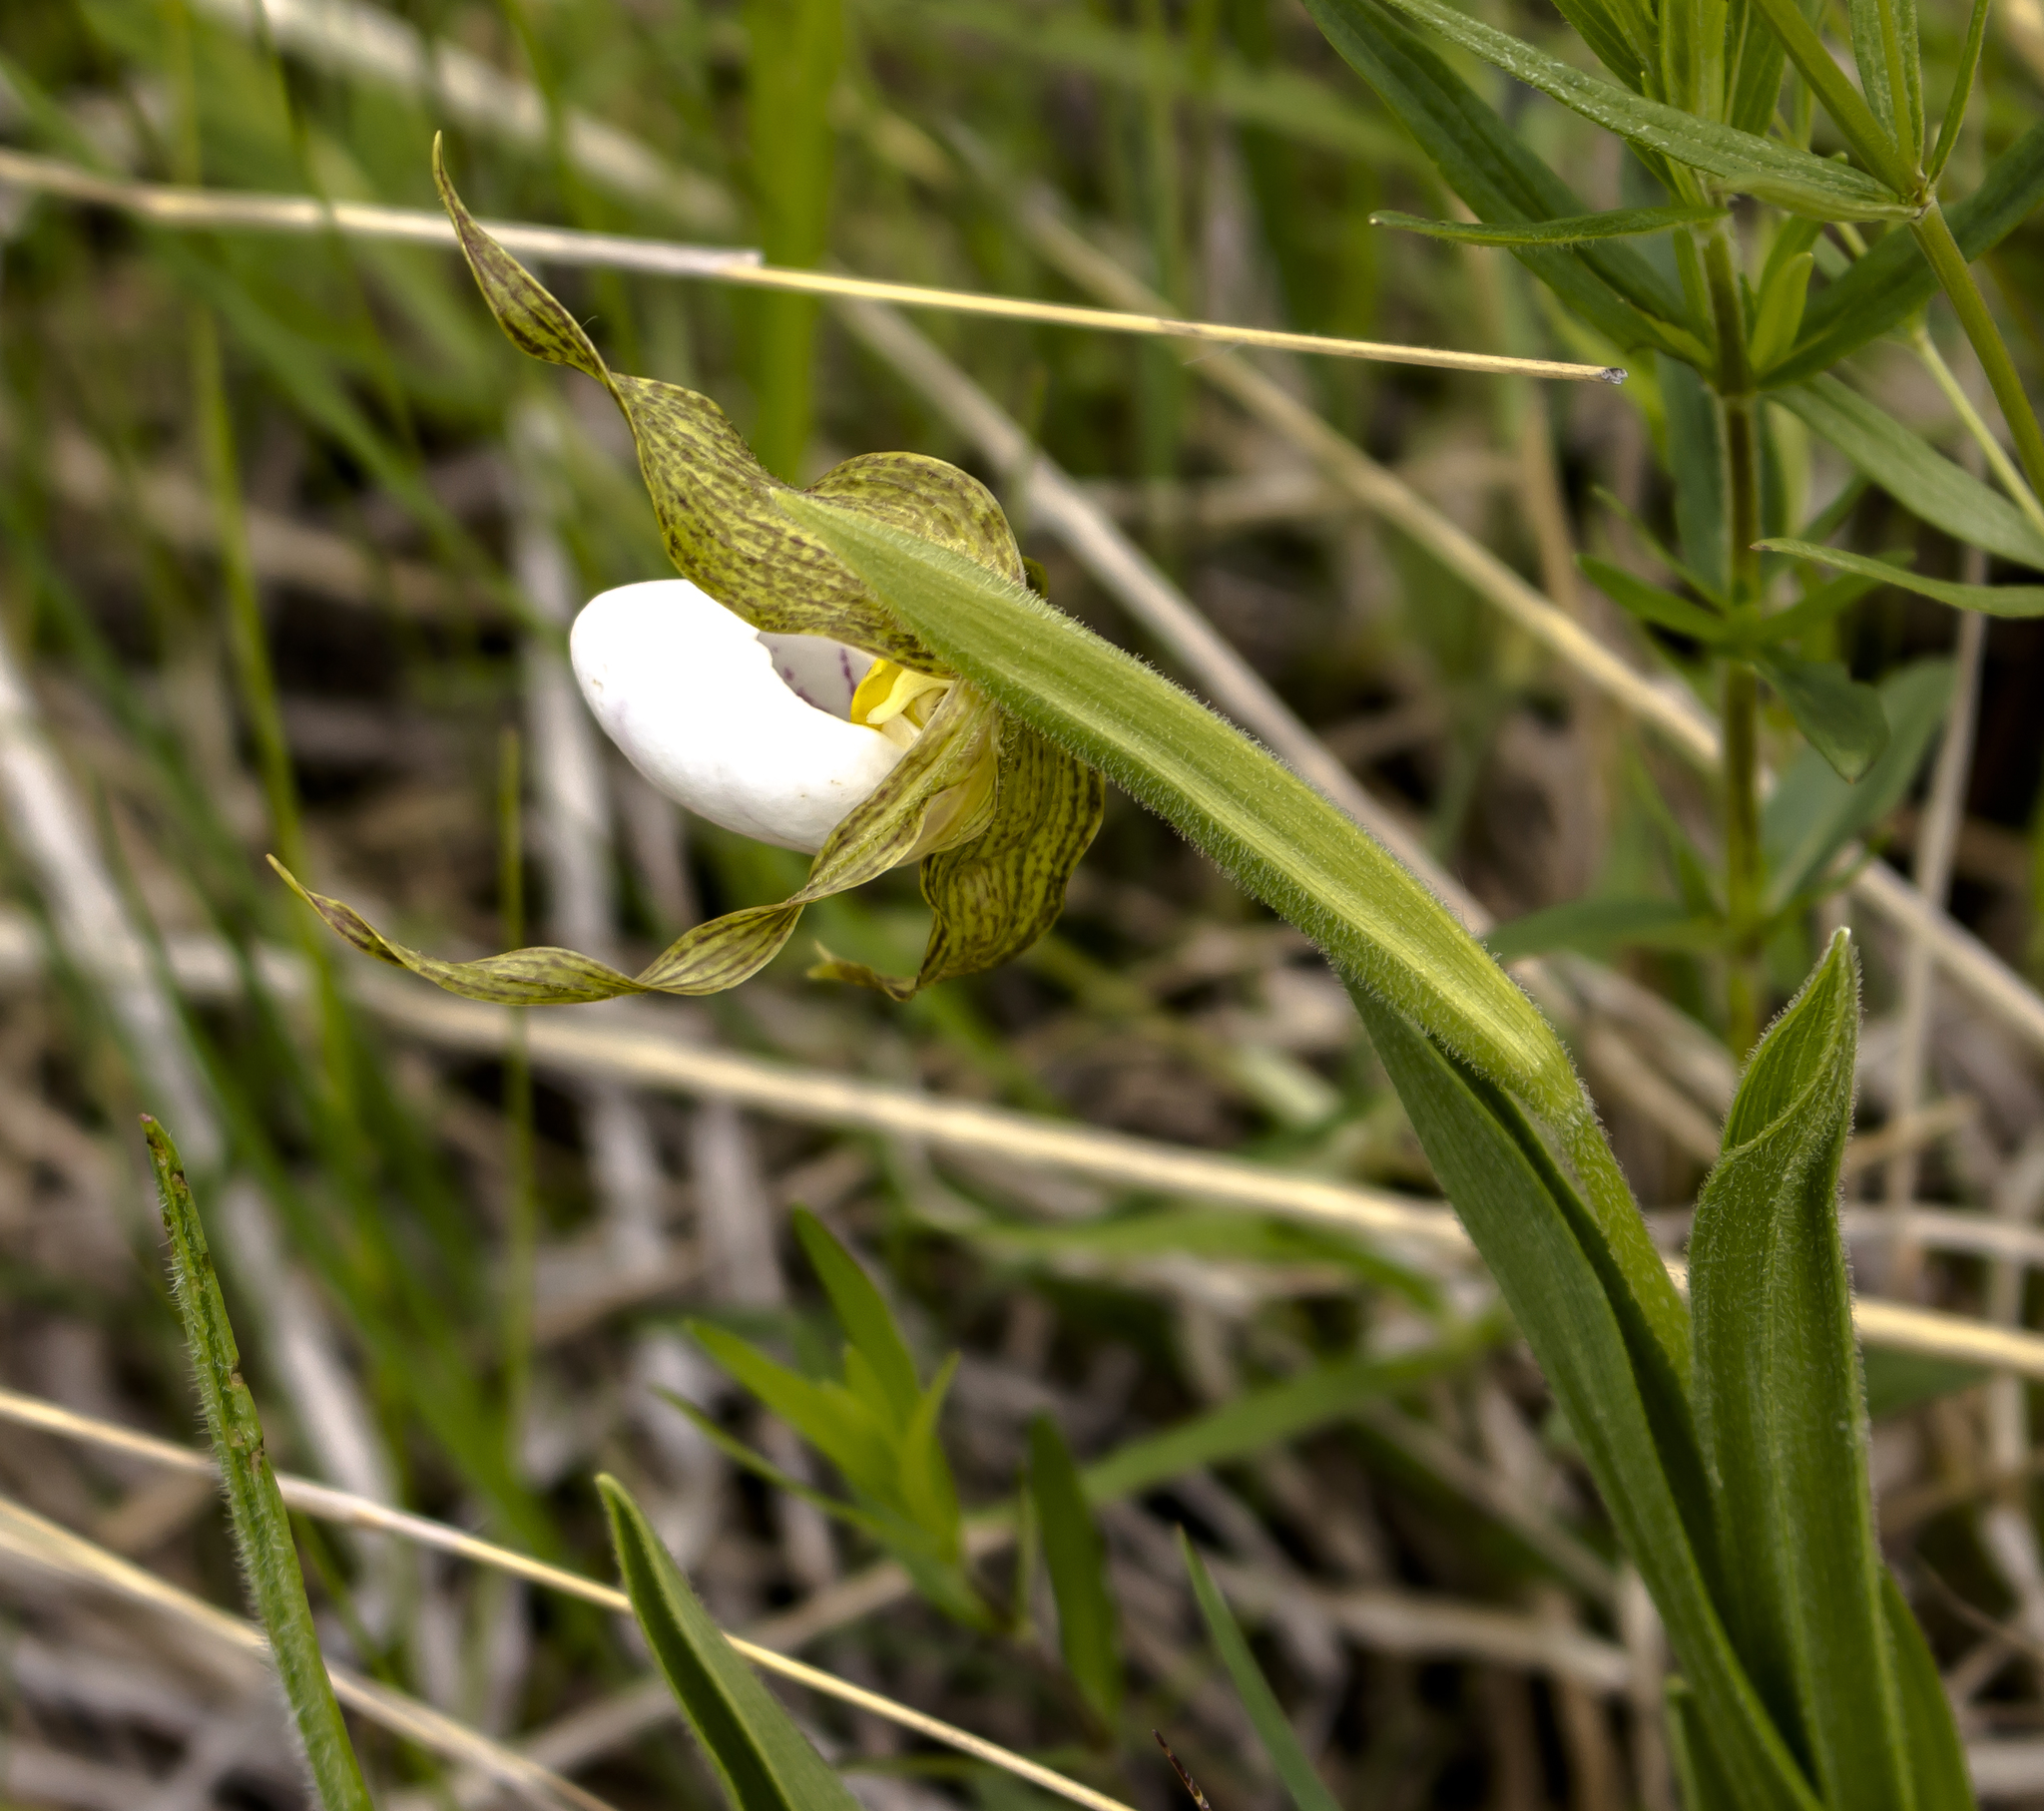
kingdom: Plantae
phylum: Tracheophyta
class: Liliopsida
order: Asparagales
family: Orchidaceae
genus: Cypripedium
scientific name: Cypripedium candidum
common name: White lady's-slipper
